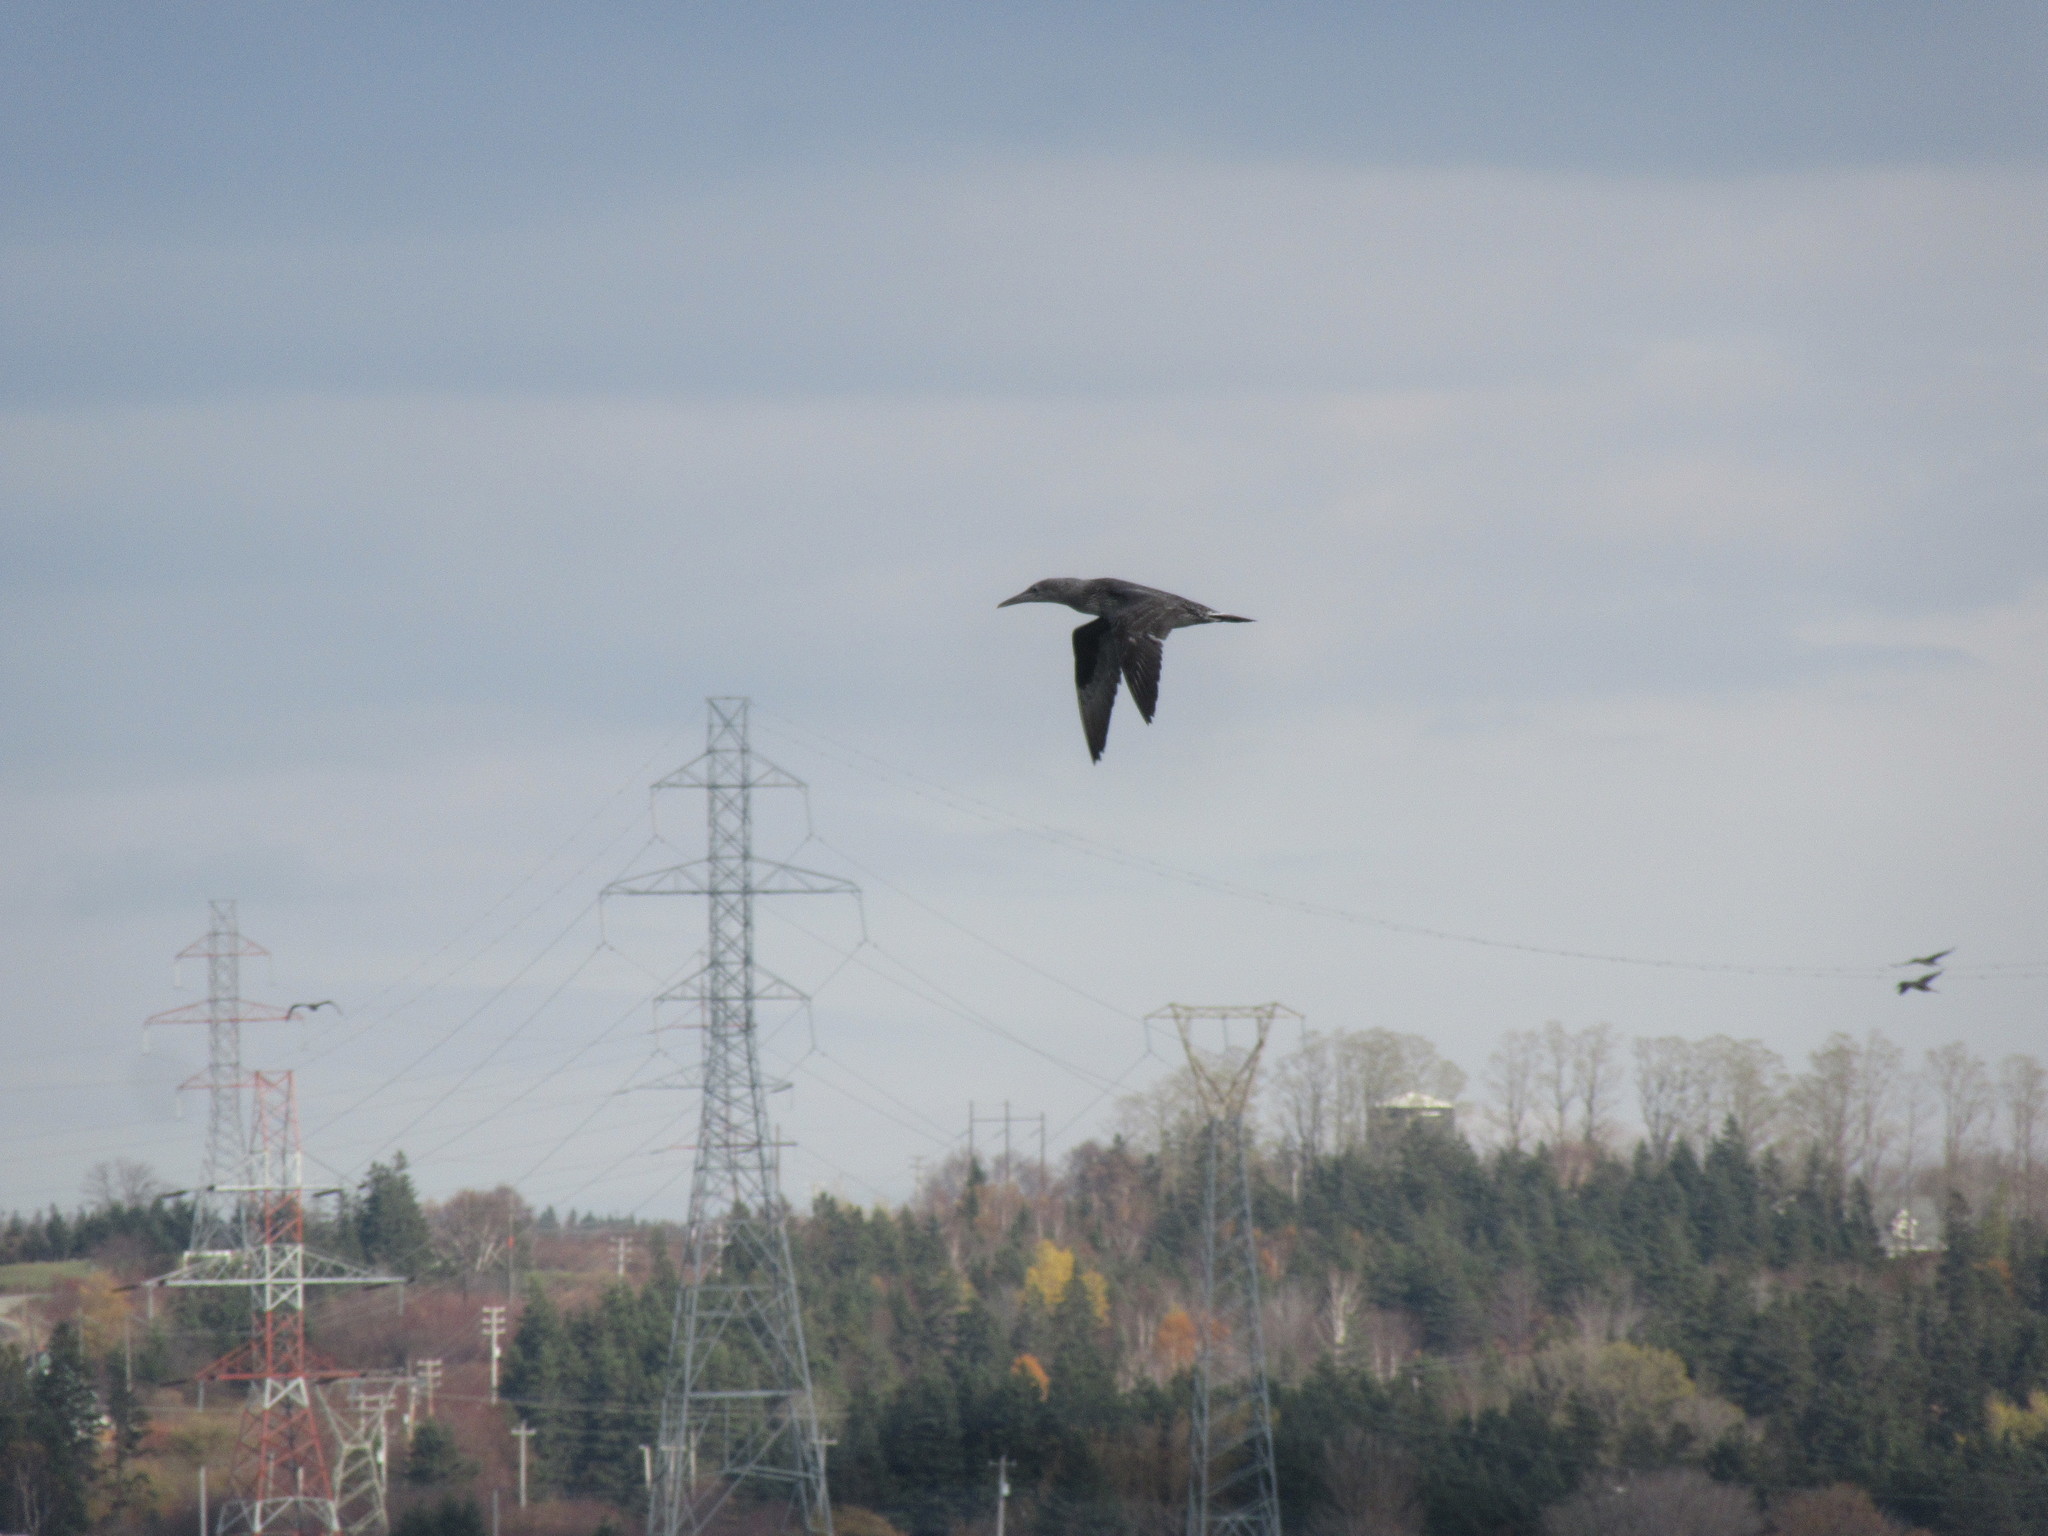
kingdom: Animalia
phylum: Chordata
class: Aves
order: Suliformes
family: Sulidae
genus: Morus
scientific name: Morus bassanus
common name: Northern gannet
